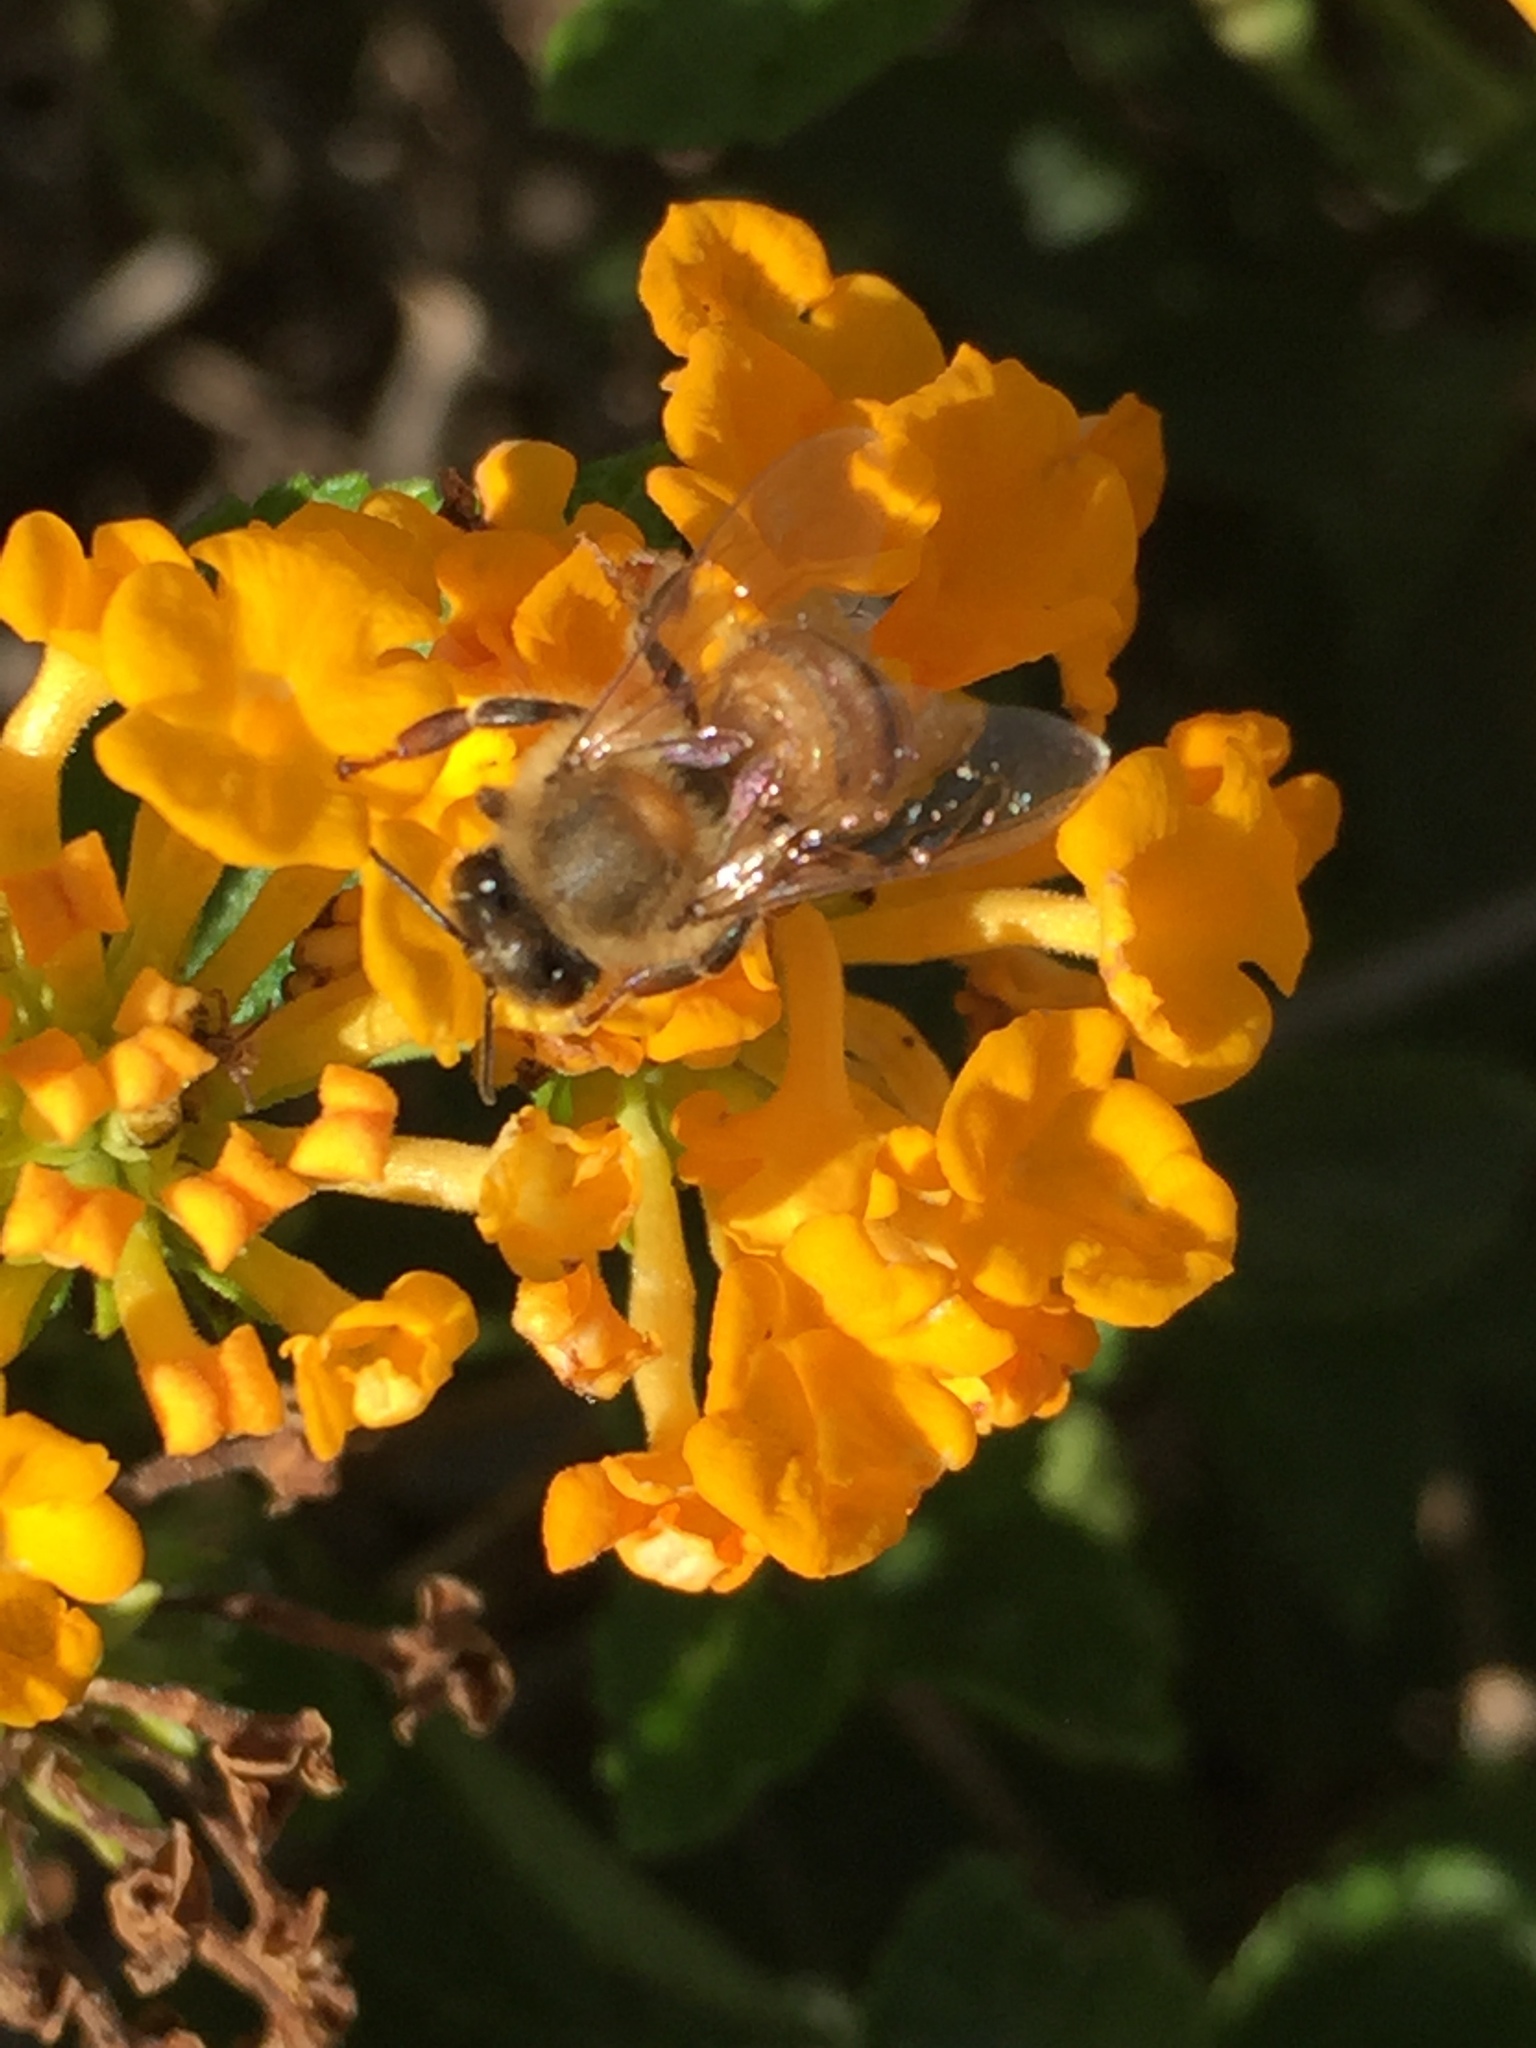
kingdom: Animalia
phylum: Arthropoda
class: Insecta
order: Hymenoptera
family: Apidae
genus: Apis
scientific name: Apis mellifera
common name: Honey bee
